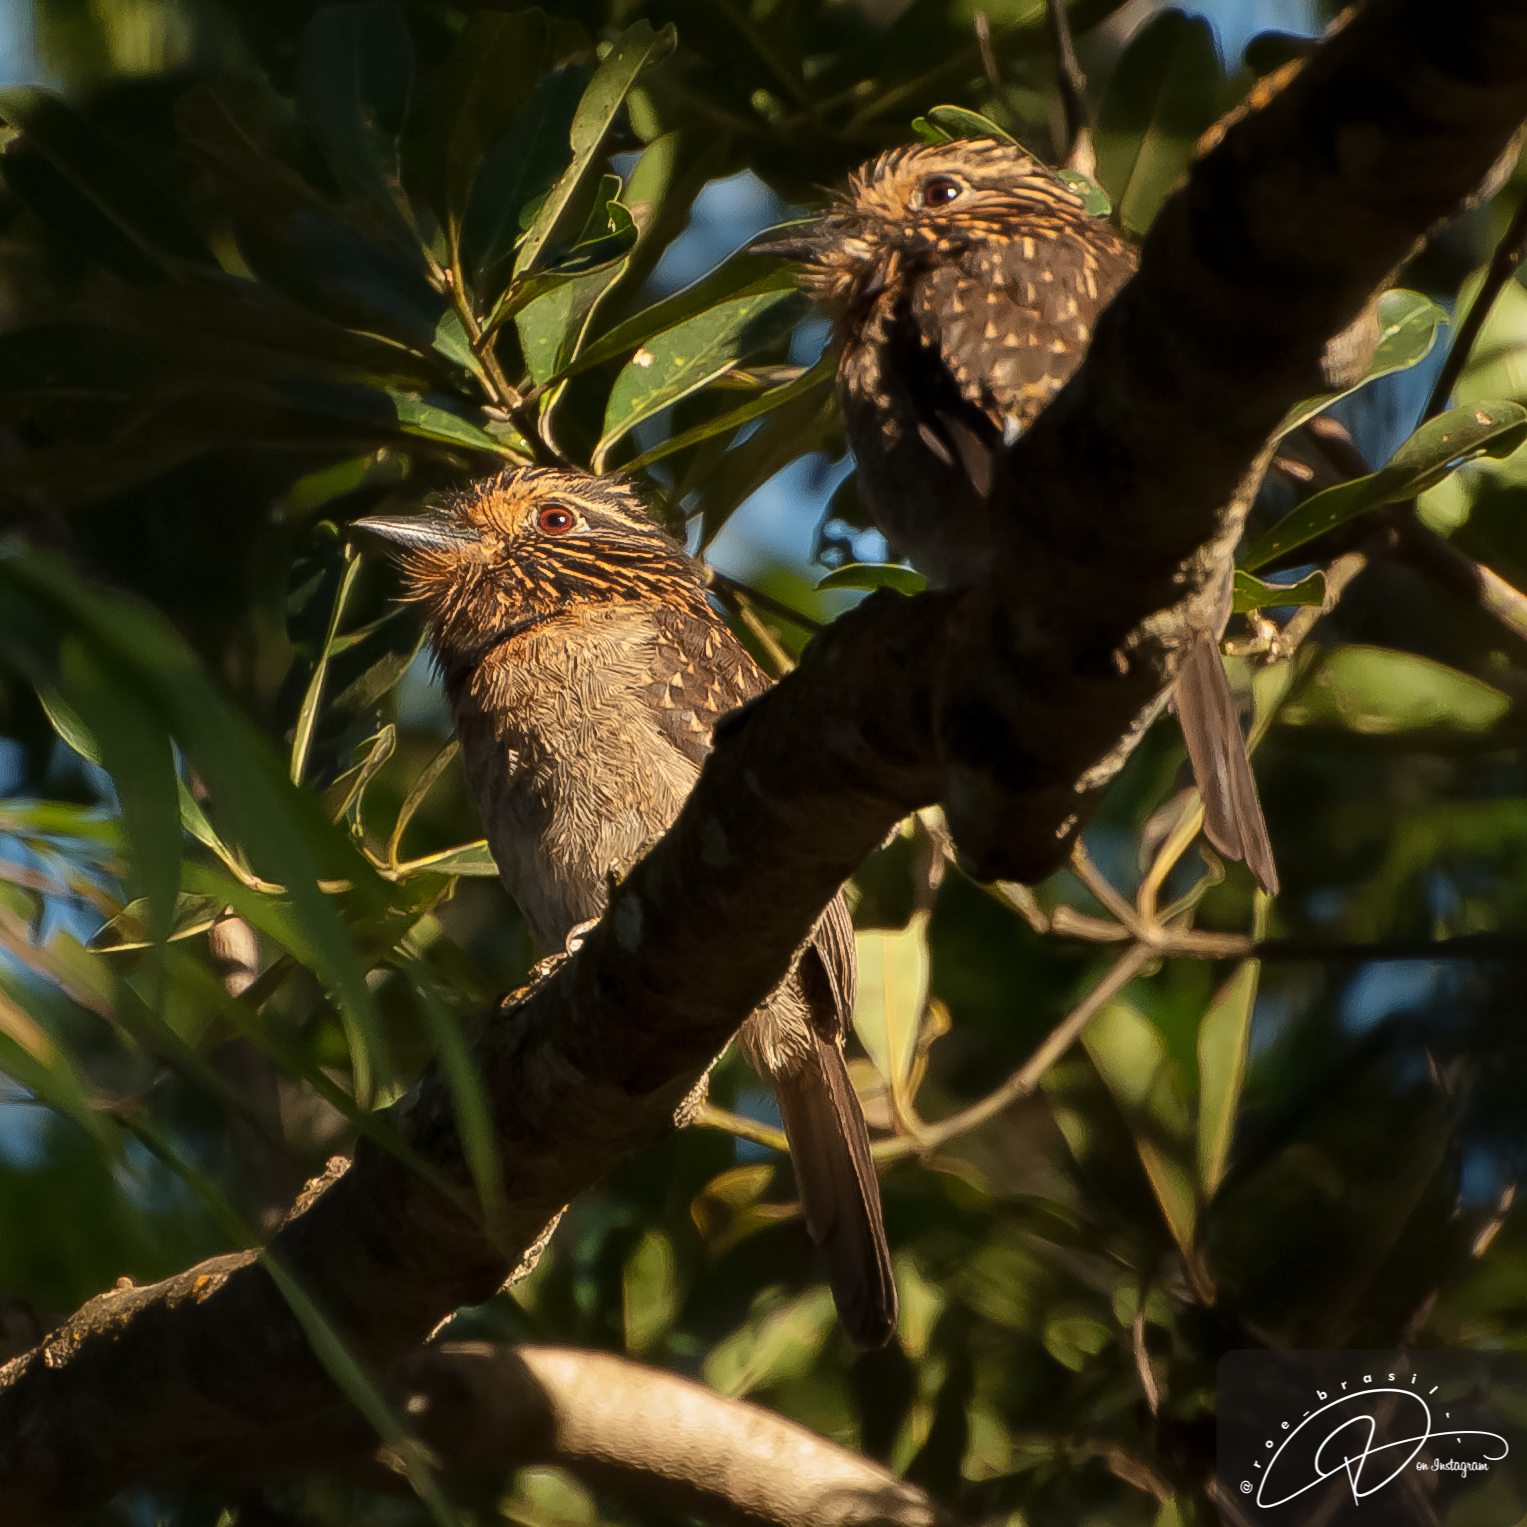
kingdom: Animalia
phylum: Chordata
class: Aves
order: Piciformes
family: Bucconidae
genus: Malacoptila
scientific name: Malacoptila striata
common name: Crescent-chested puffbird
